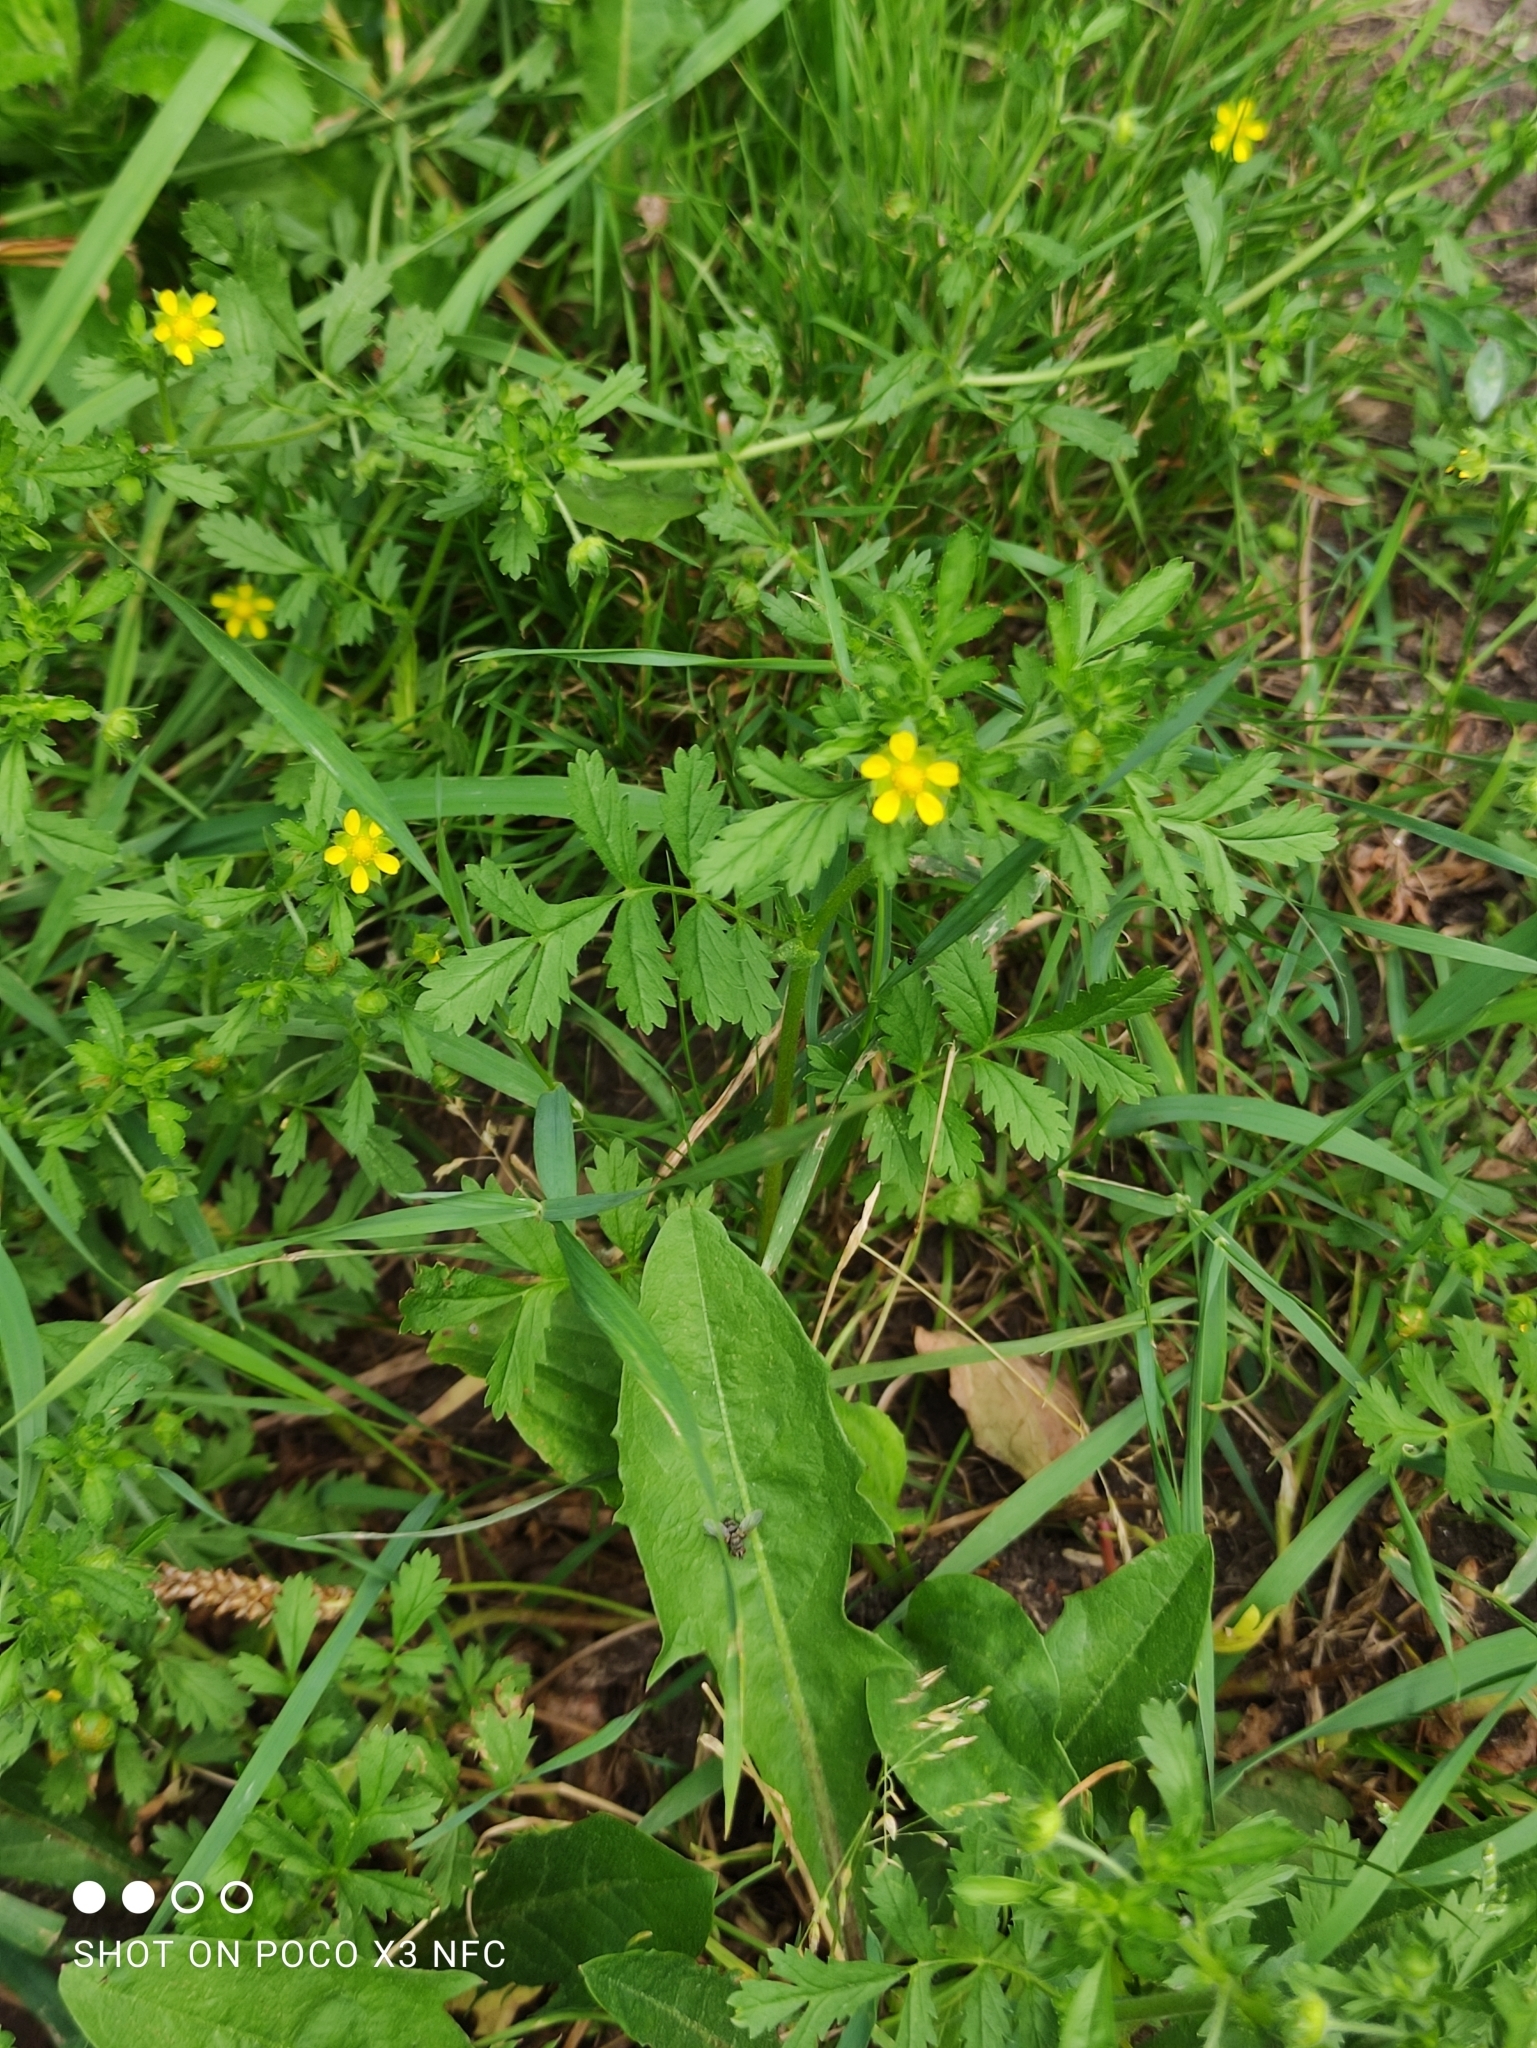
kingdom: Plantae
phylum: Tracheophyta
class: Magnoliopsida
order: Rosales
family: Rosaceae
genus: Potentilla
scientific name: Potentilla supina
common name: Prostrate cinquefoil
